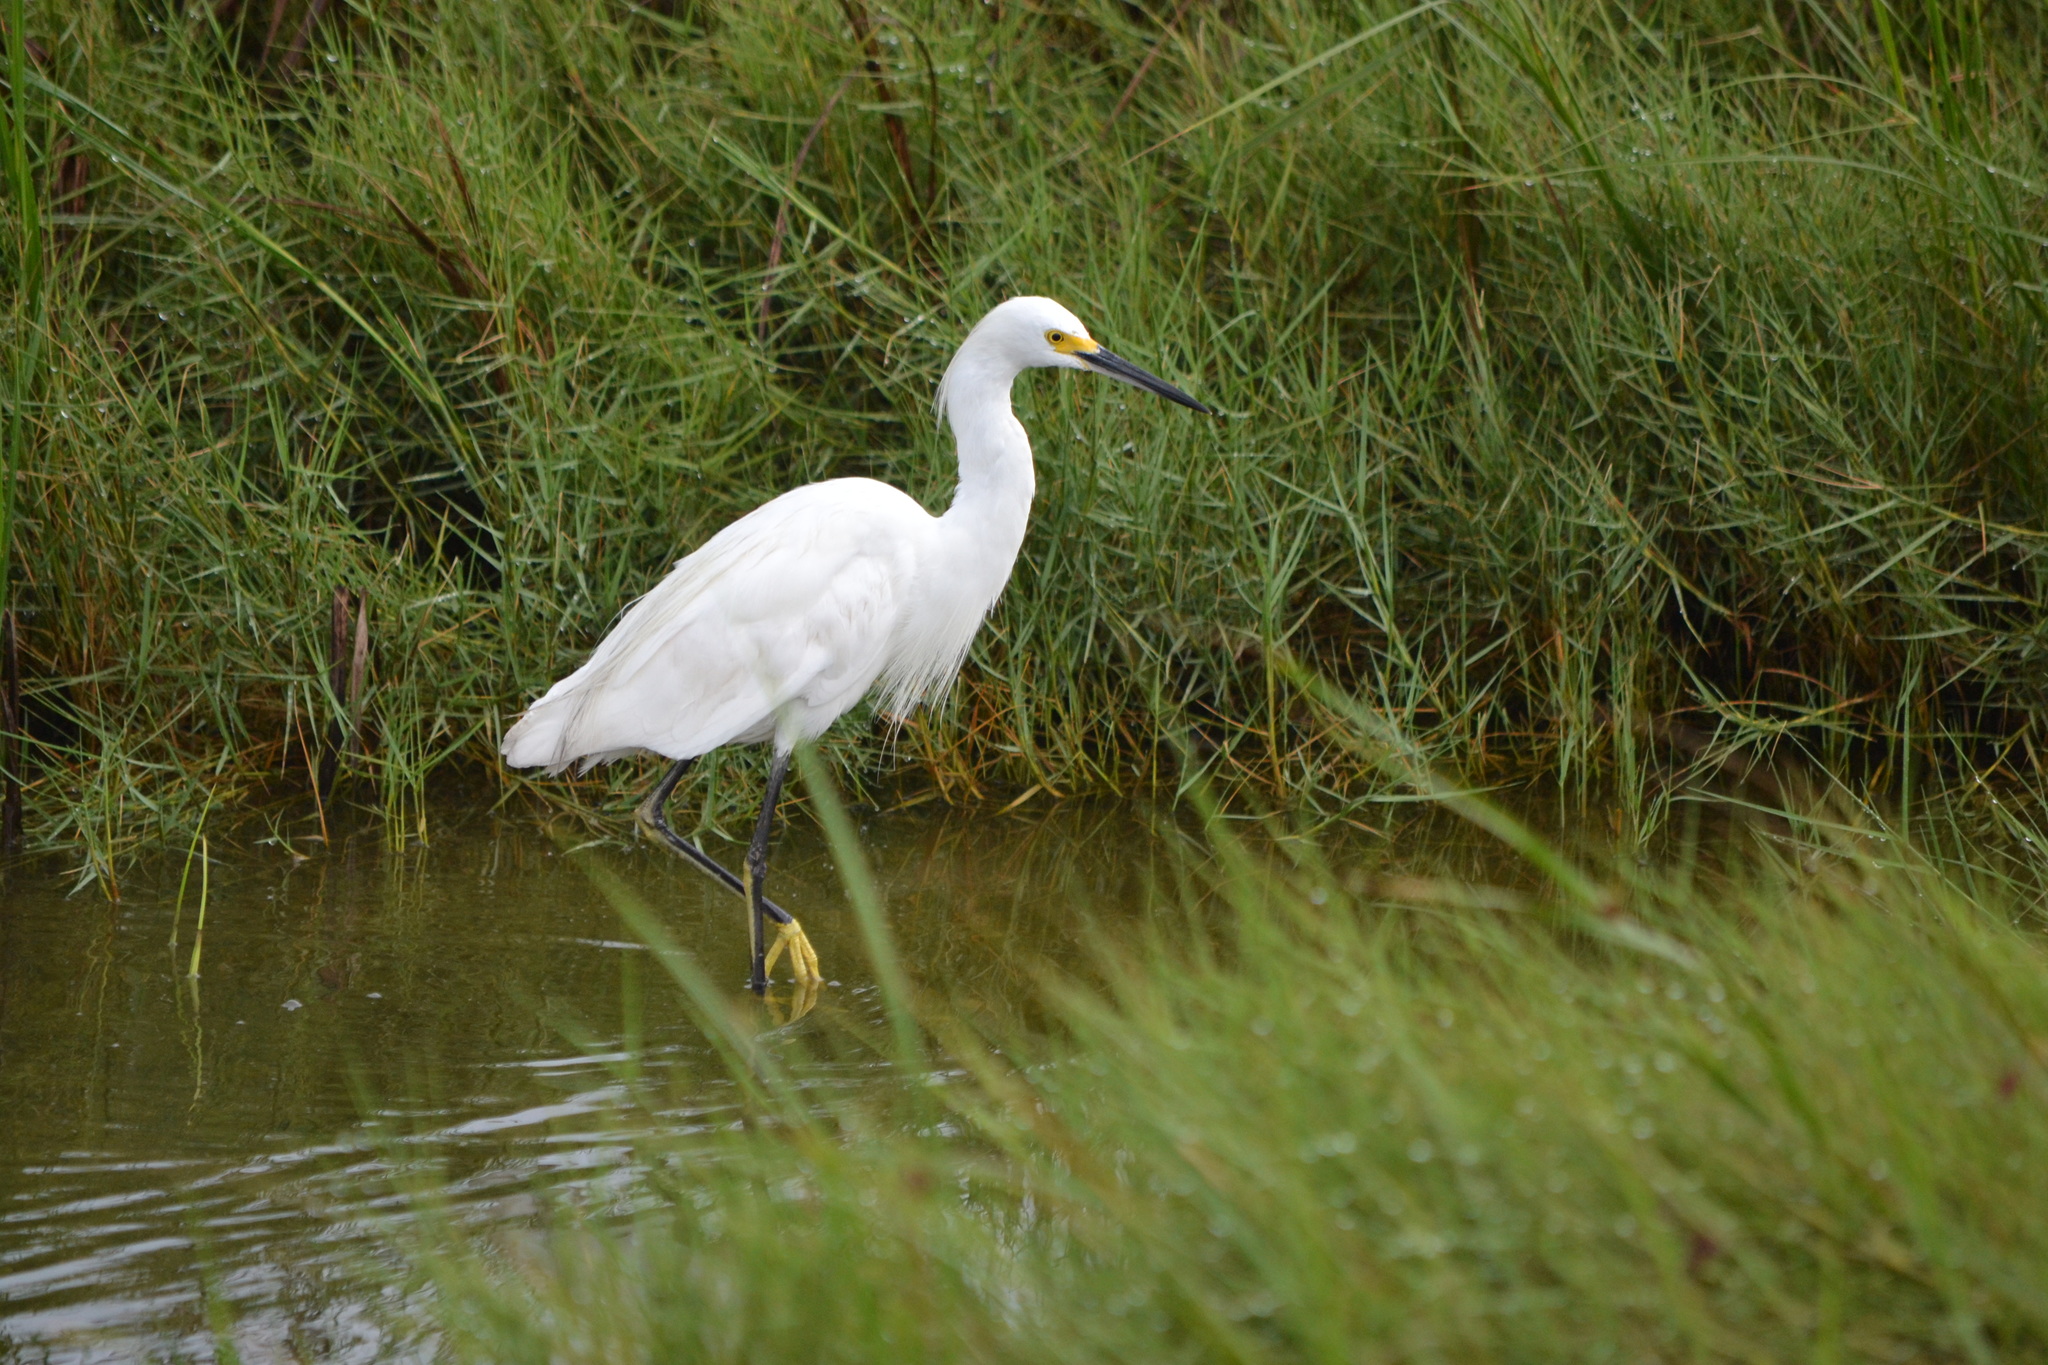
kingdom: Animalia
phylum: Chordata
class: Aves
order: Pelecaniformes
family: Ardeidae
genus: Egretta
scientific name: Egretta thula
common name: Snowy egret
